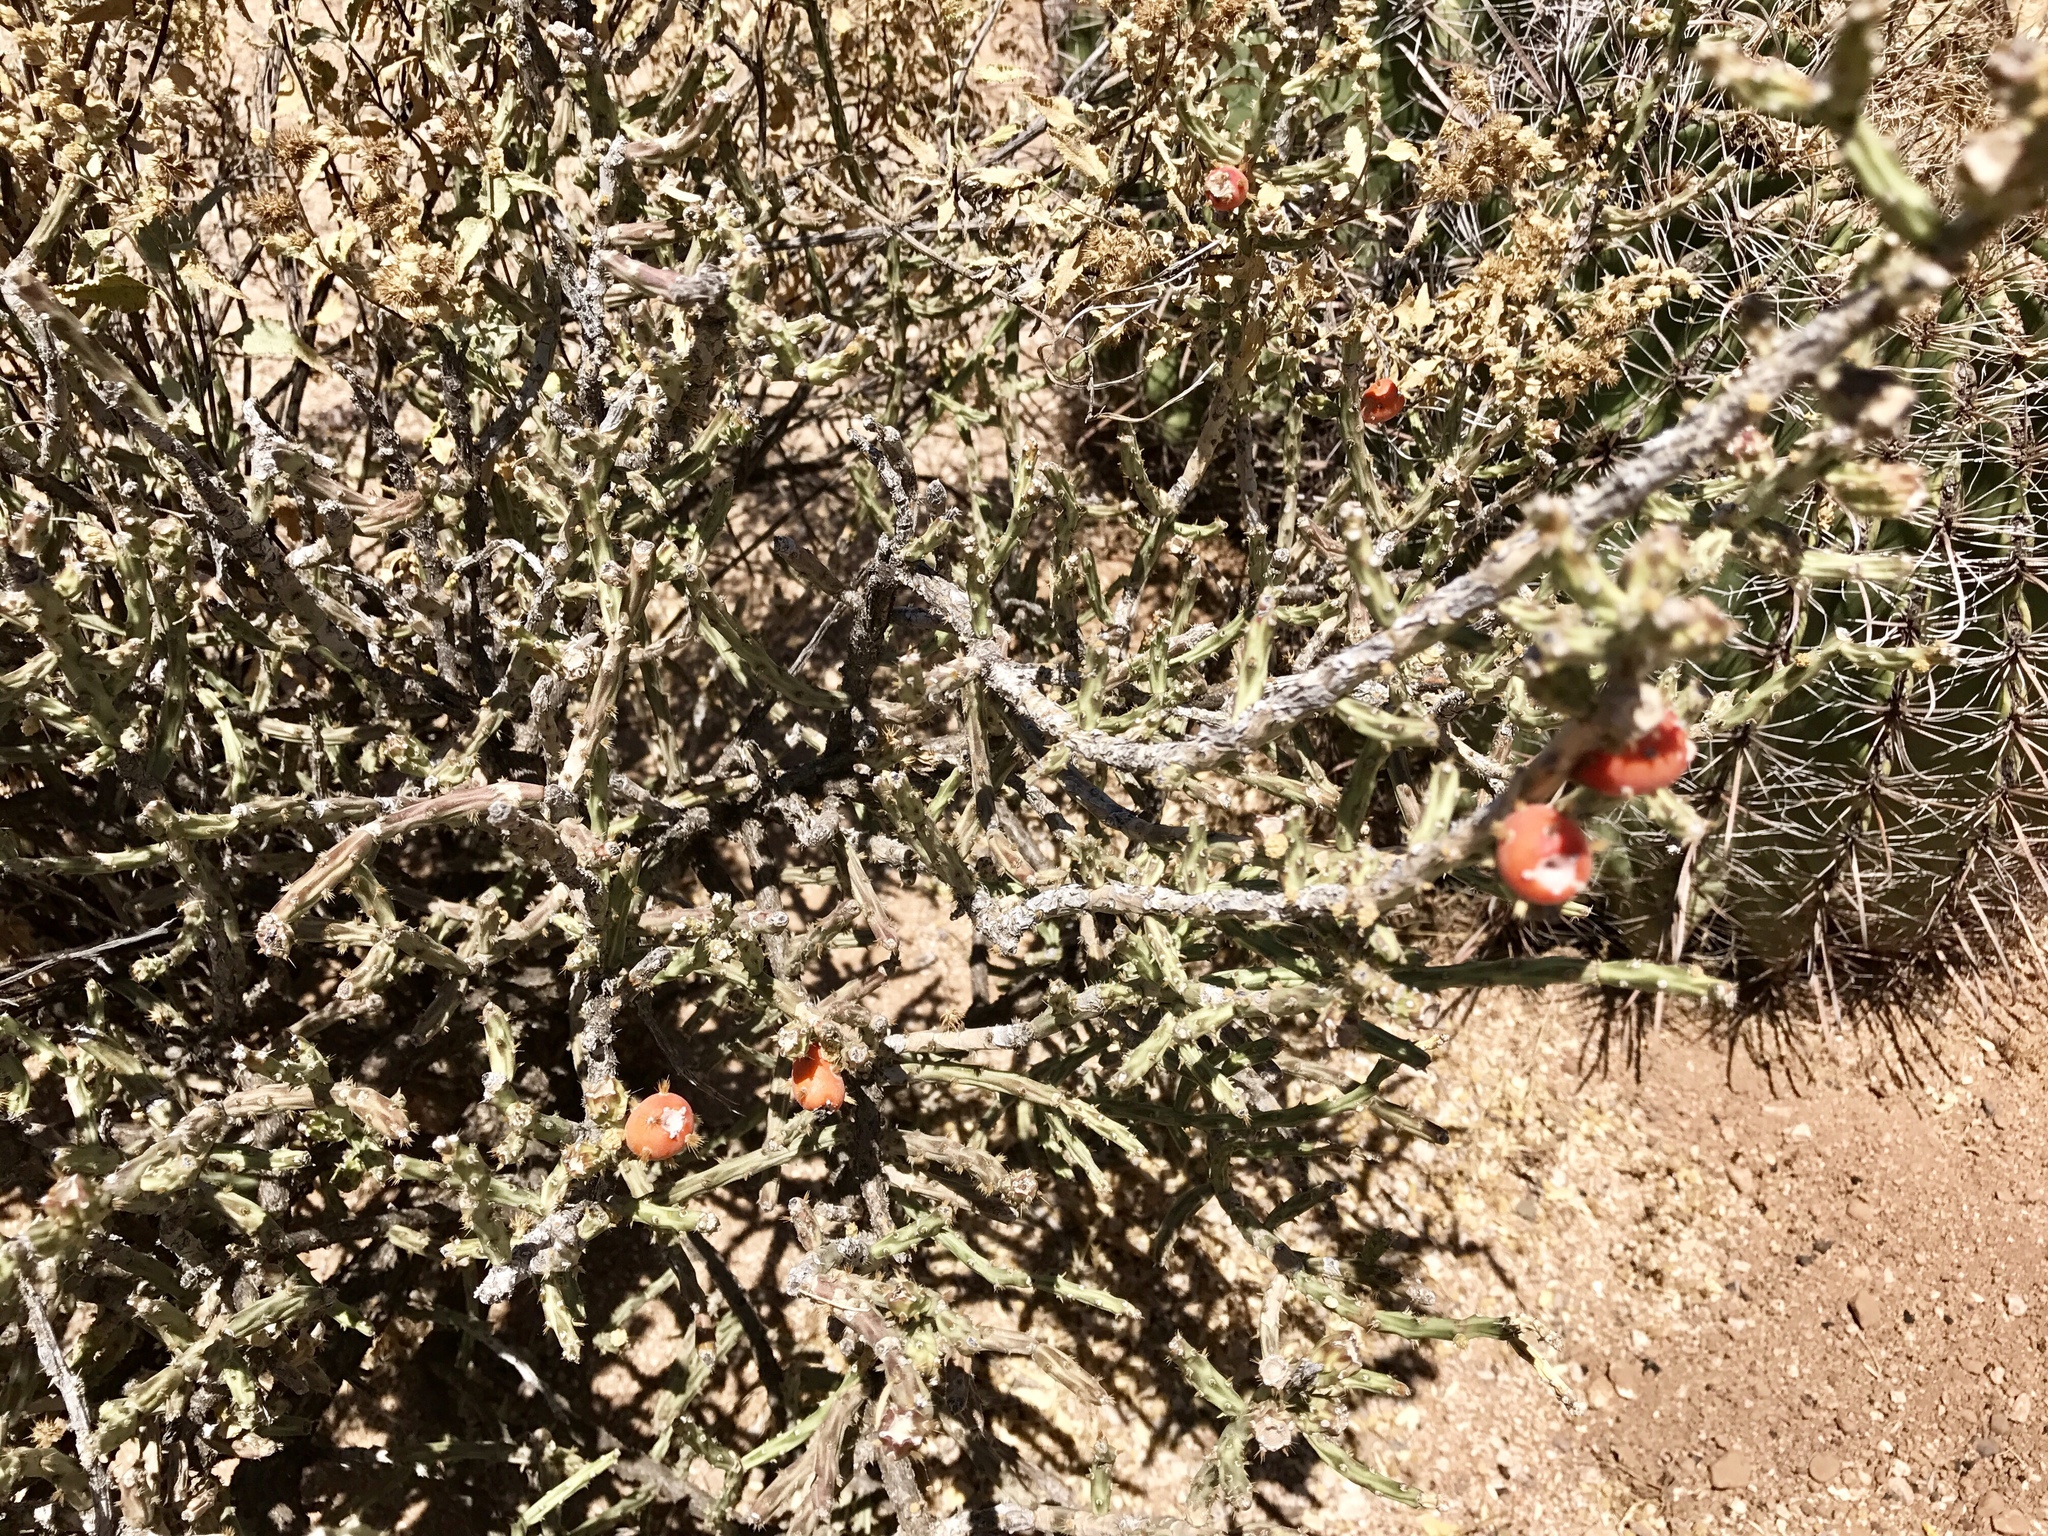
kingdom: Plantae
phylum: Tracheophyta
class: Magnoliopsida
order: Caryophyllales
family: Cactaceae
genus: Cylindropuntia
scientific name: Cylindropuntia leptocaulis
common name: Christmas cactus
